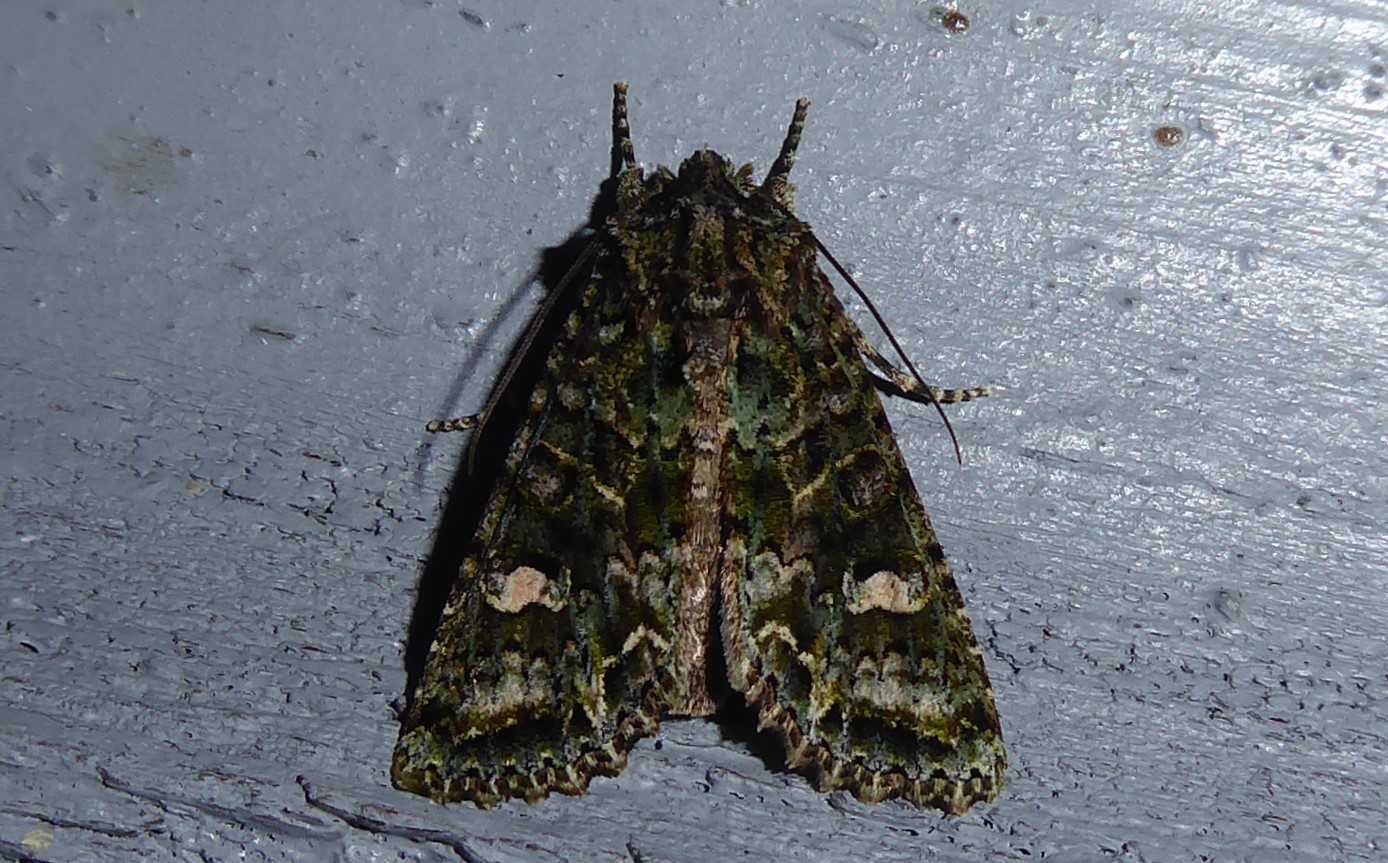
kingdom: Animalia
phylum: Arthropoda
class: Insecta
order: Lepidoptera
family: Noctuidae
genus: Ichneutica
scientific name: Ichneutica
